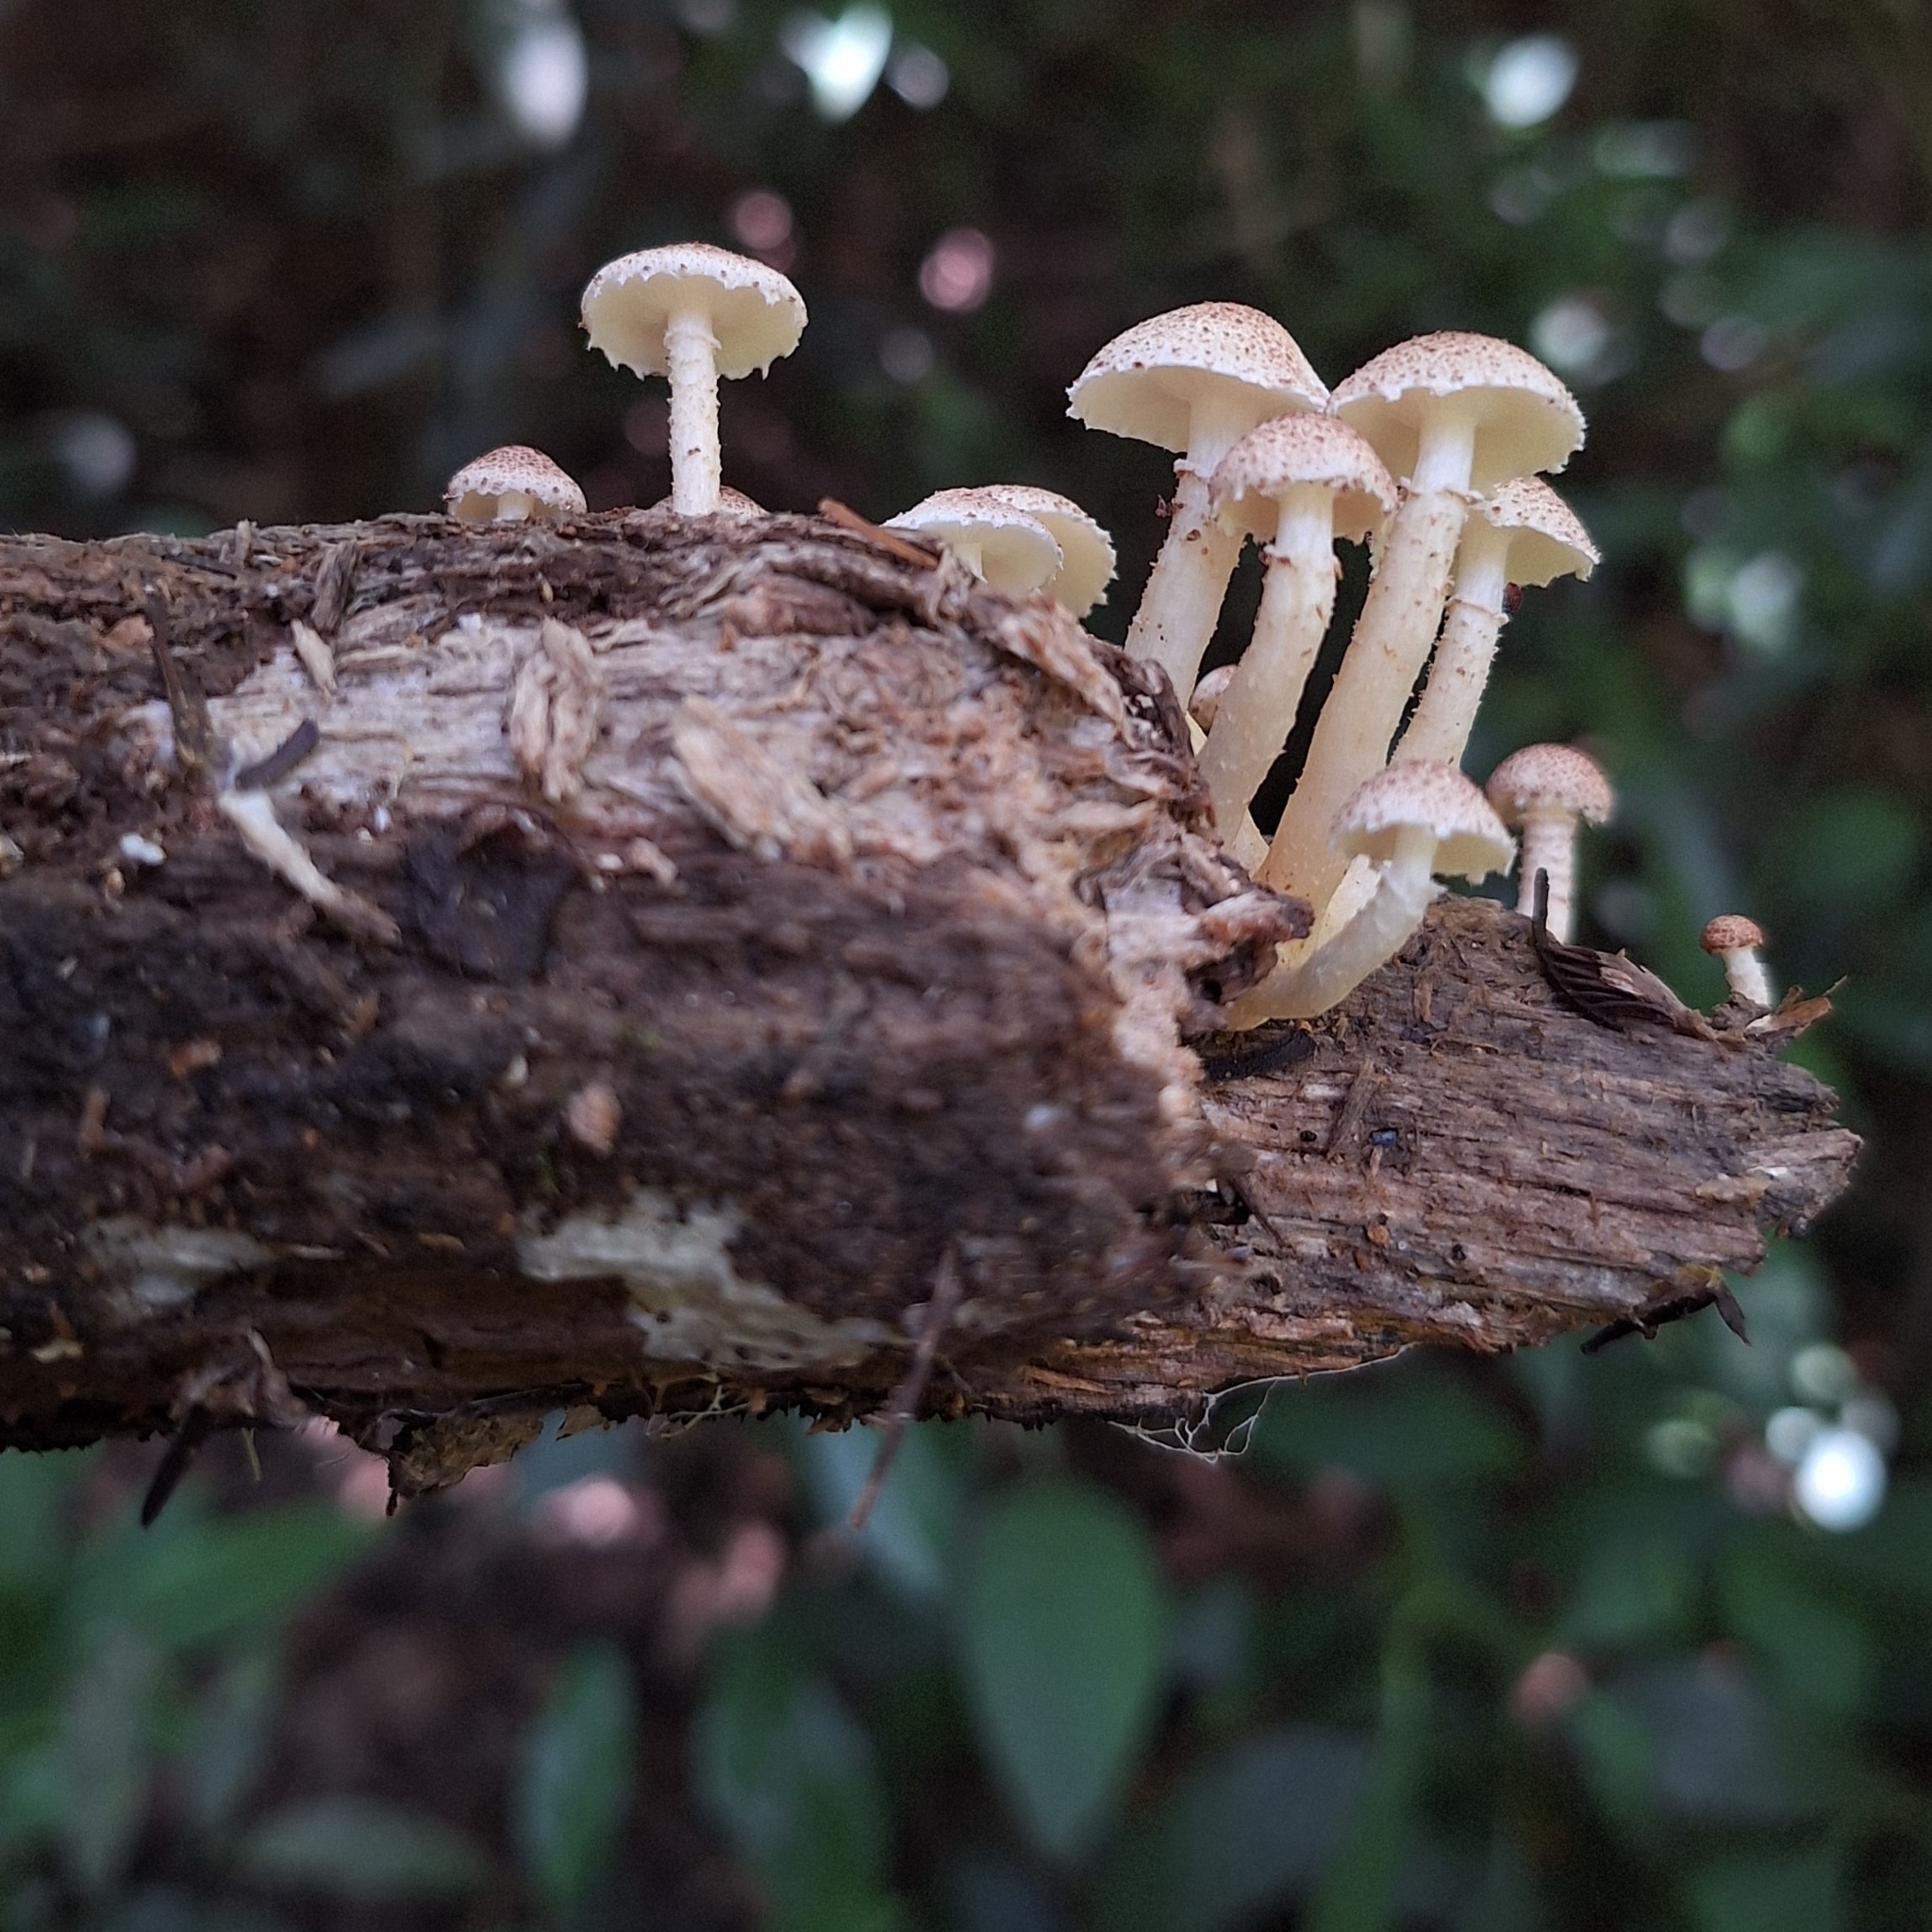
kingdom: Fungi
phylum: Basidiomycota
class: Agaricomycetes
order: Agaricales
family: Agaricaceae
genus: Ripartitella
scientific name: Ripartitella brasiliensis
